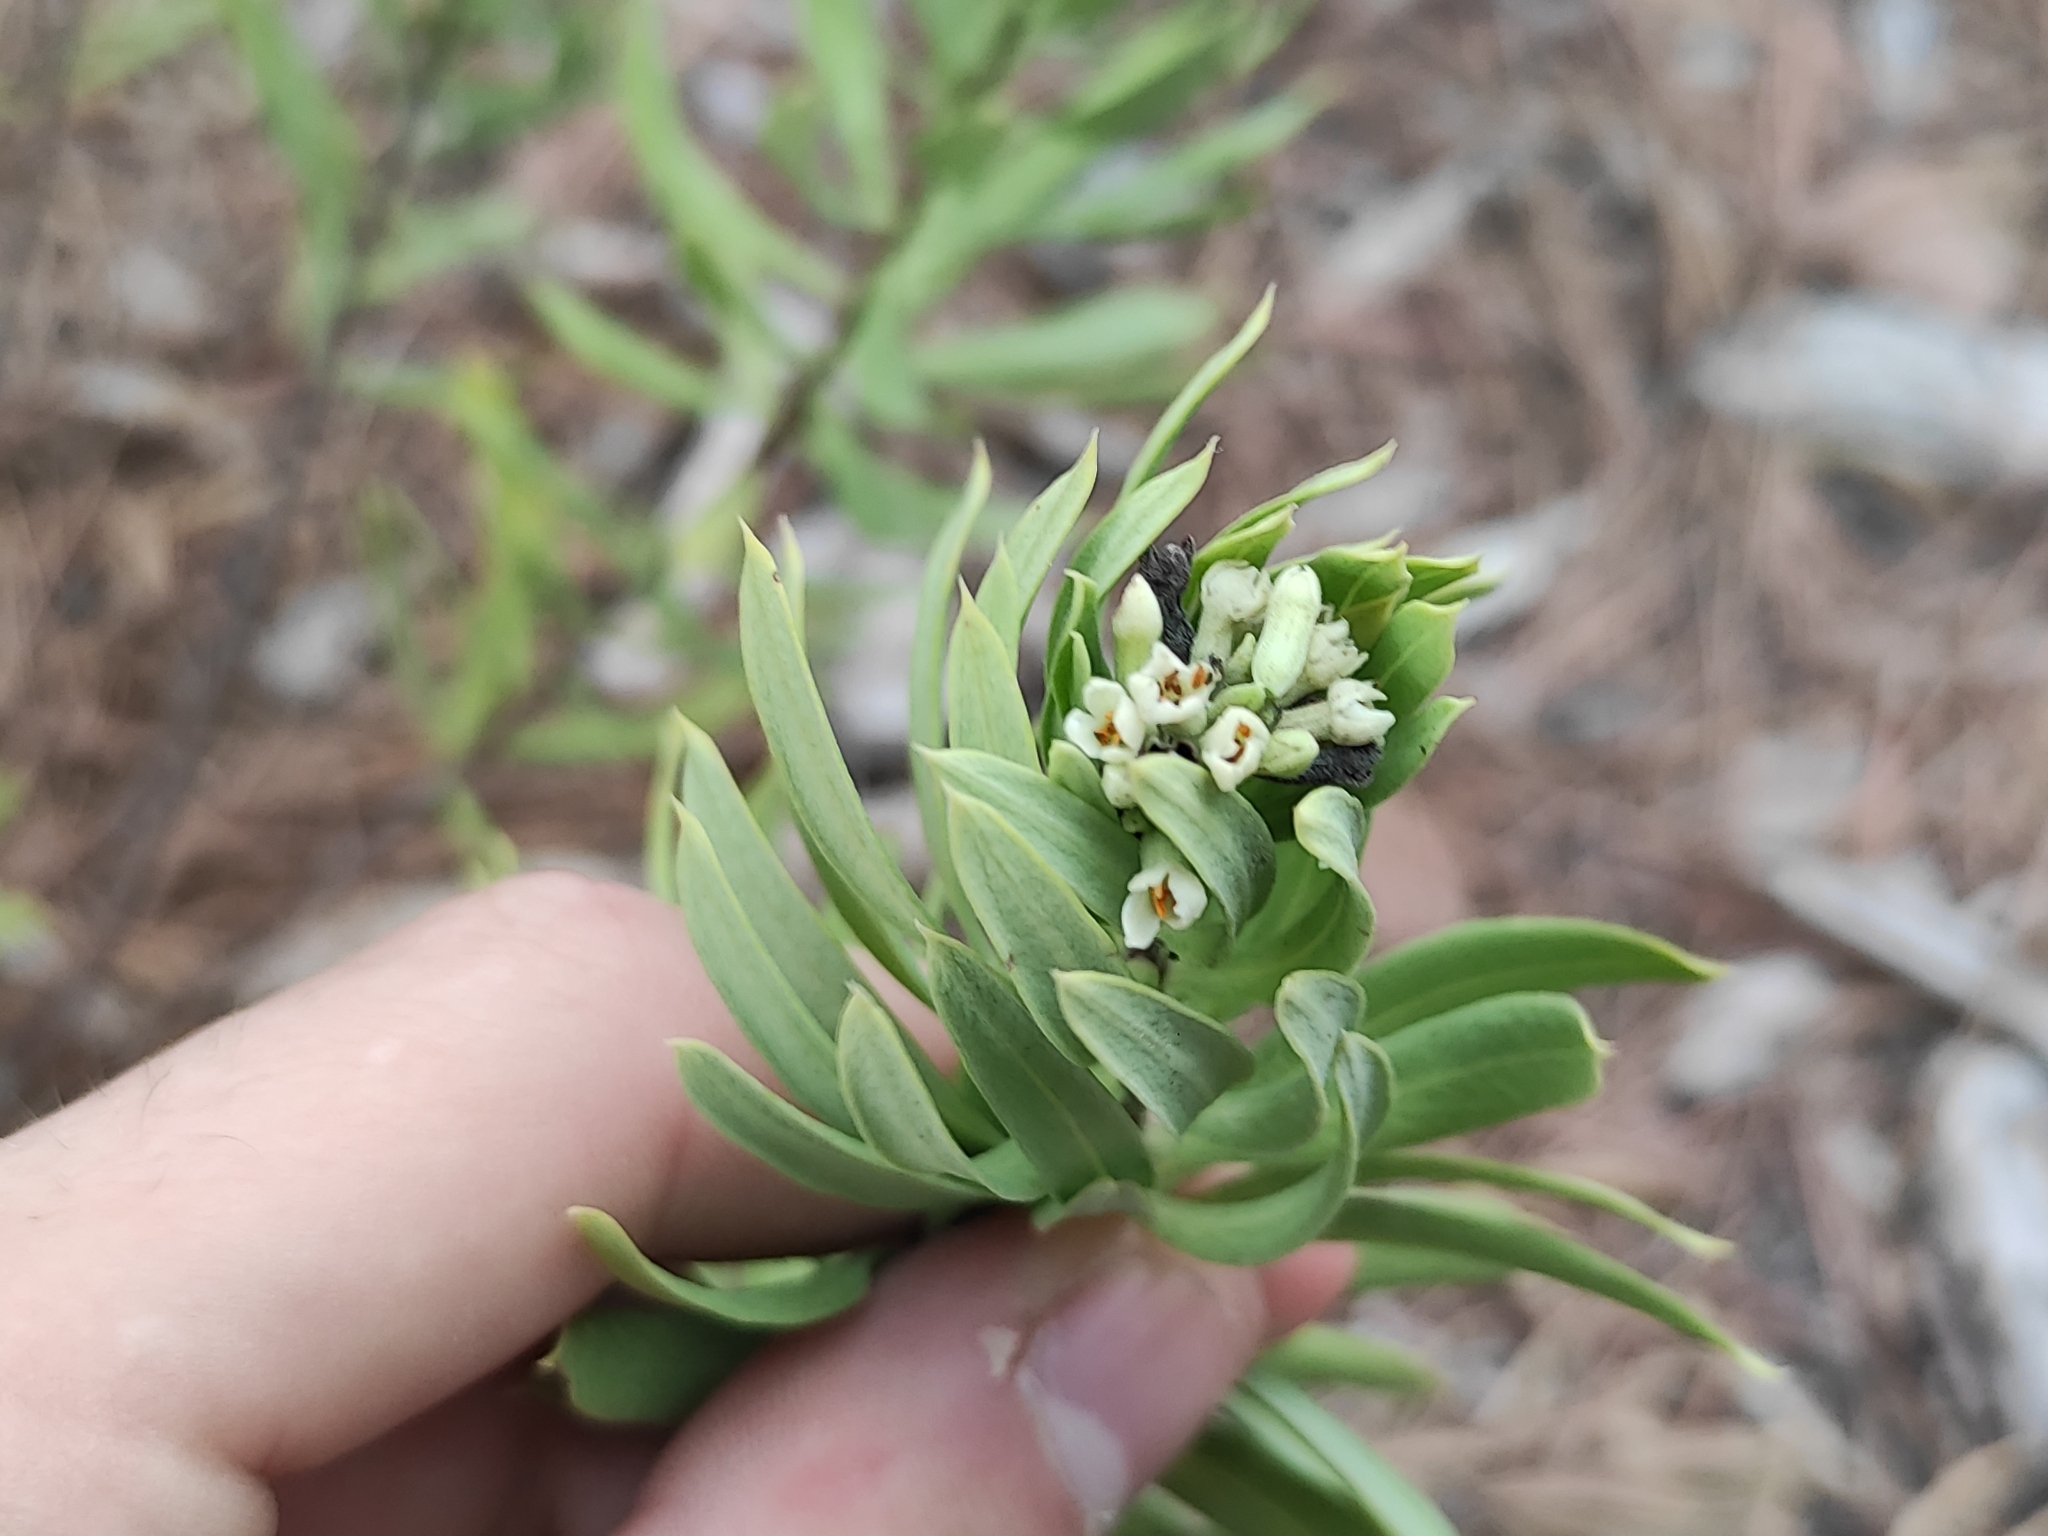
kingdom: Plantae
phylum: Tracheophyta
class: Magnoliopsida
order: Malvales
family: Thymelaeaceae
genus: Daphne
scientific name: Daphne gnidium
